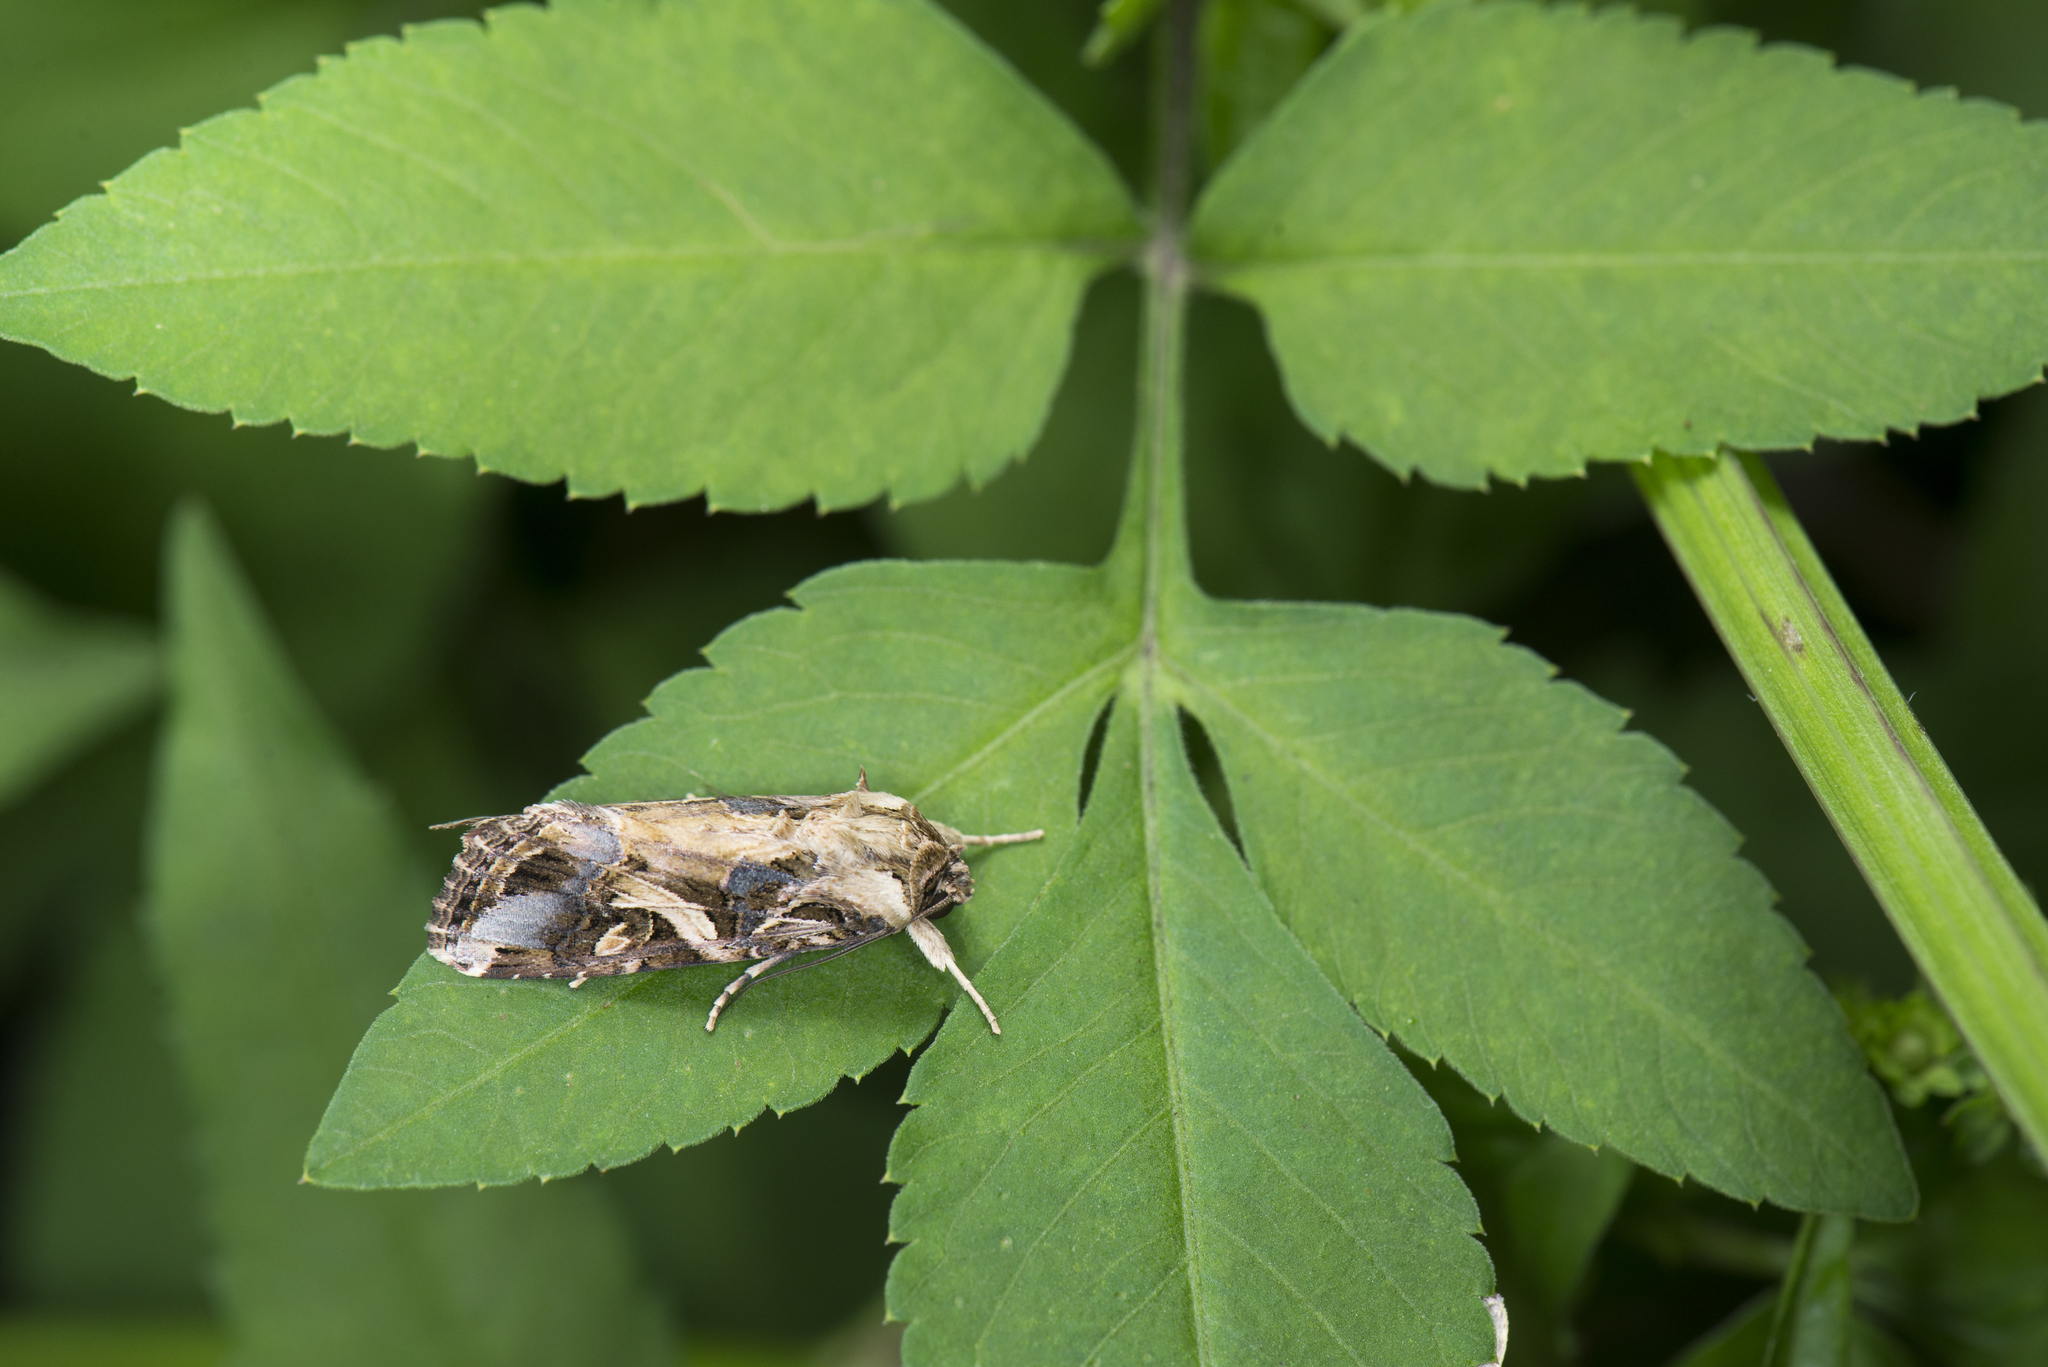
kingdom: Animalia
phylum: Arthropoda
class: Insecta
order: Lepidoptera
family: Noctuidae
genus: Spodoptera
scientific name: Spodoptera litura
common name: Asian cotton leafworm
